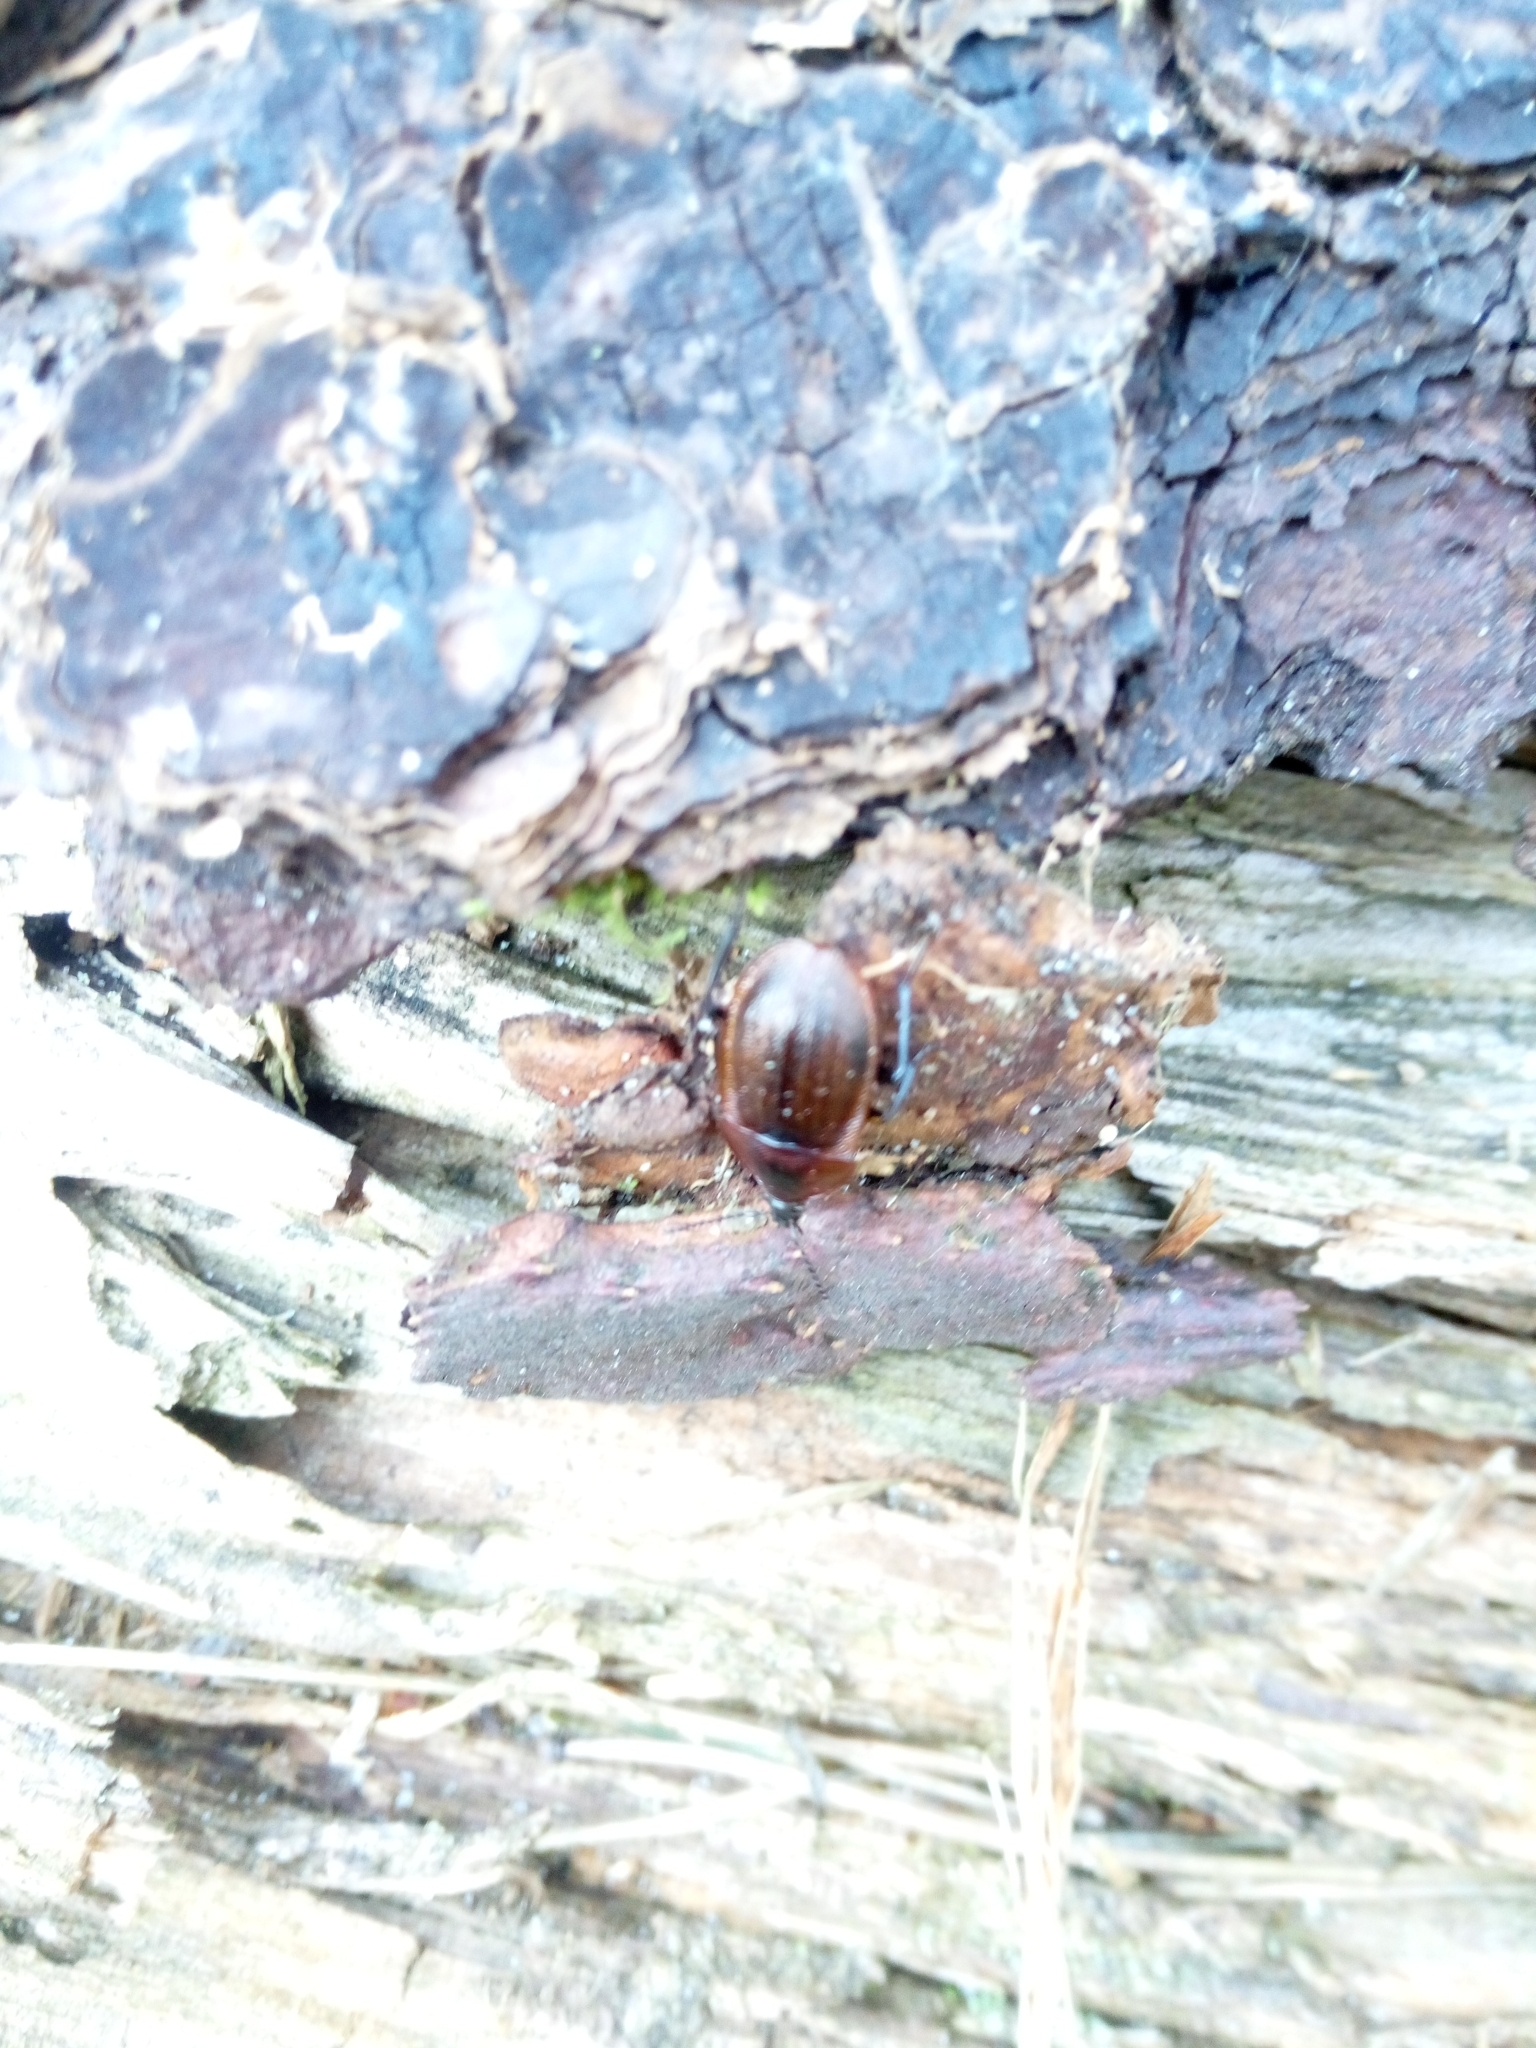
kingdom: Animalia
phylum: Arthropoda
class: Insecta
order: Coleoptera
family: Staphylinidae
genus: Silpha
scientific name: Silpha atrata
